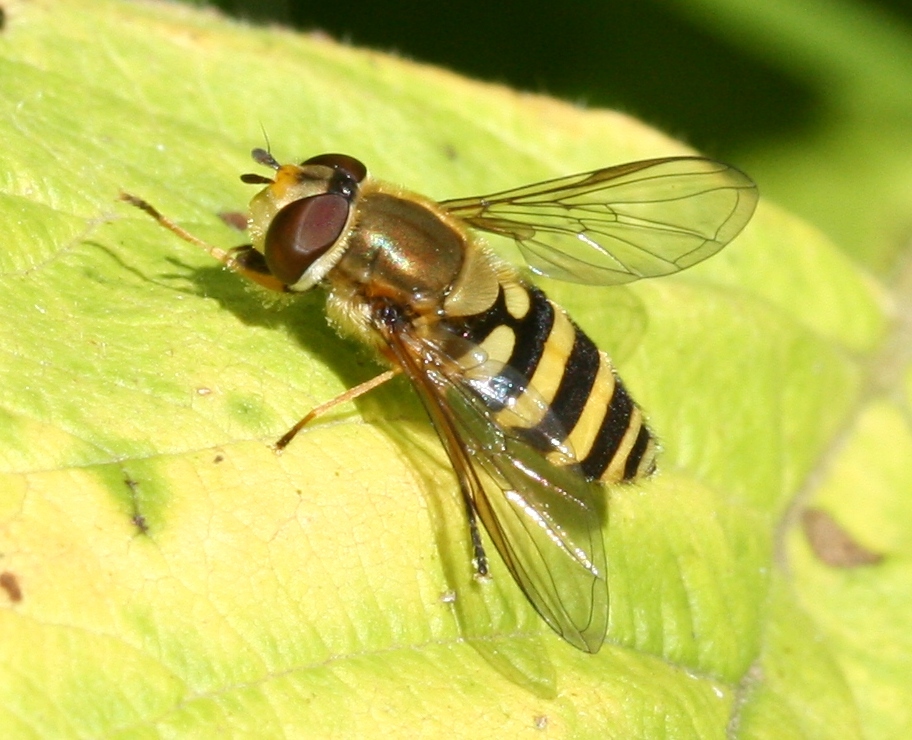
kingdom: Animalia
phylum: Arthropoda
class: Insecta
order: Diptera
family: Syrphidae
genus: Syrphus
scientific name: Syrphus
